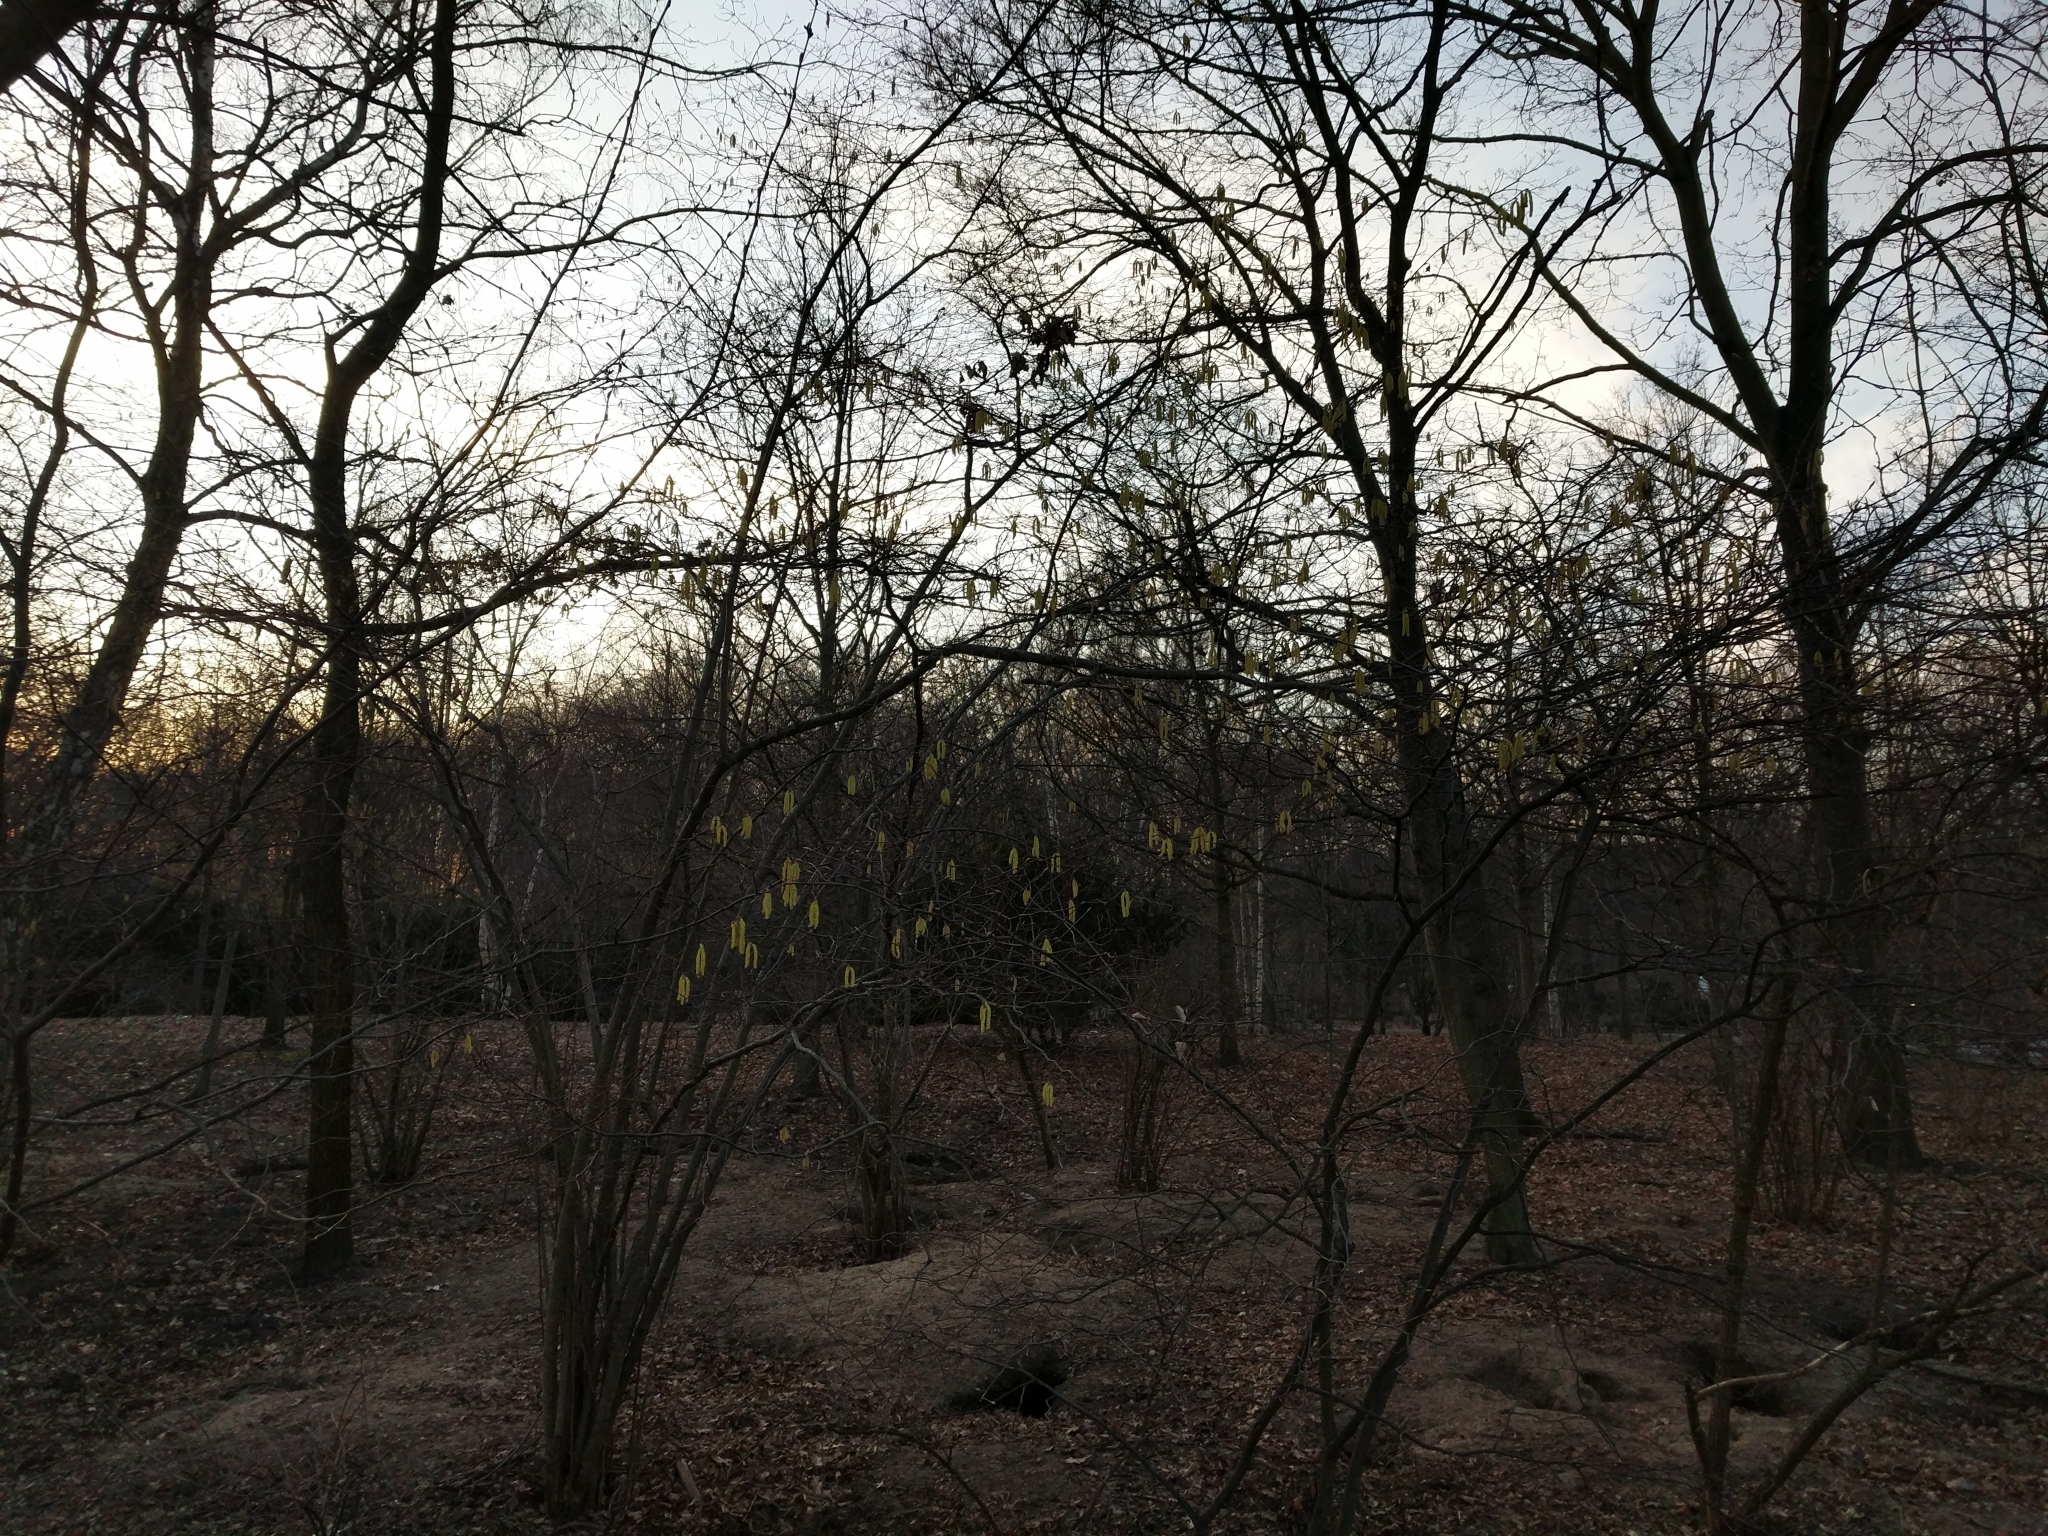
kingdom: Plantae
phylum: Tracheophyta
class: Magnoliopsida
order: Fagales
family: Betulaceae
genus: Corylus
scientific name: Corylus avellana
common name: European hazel
